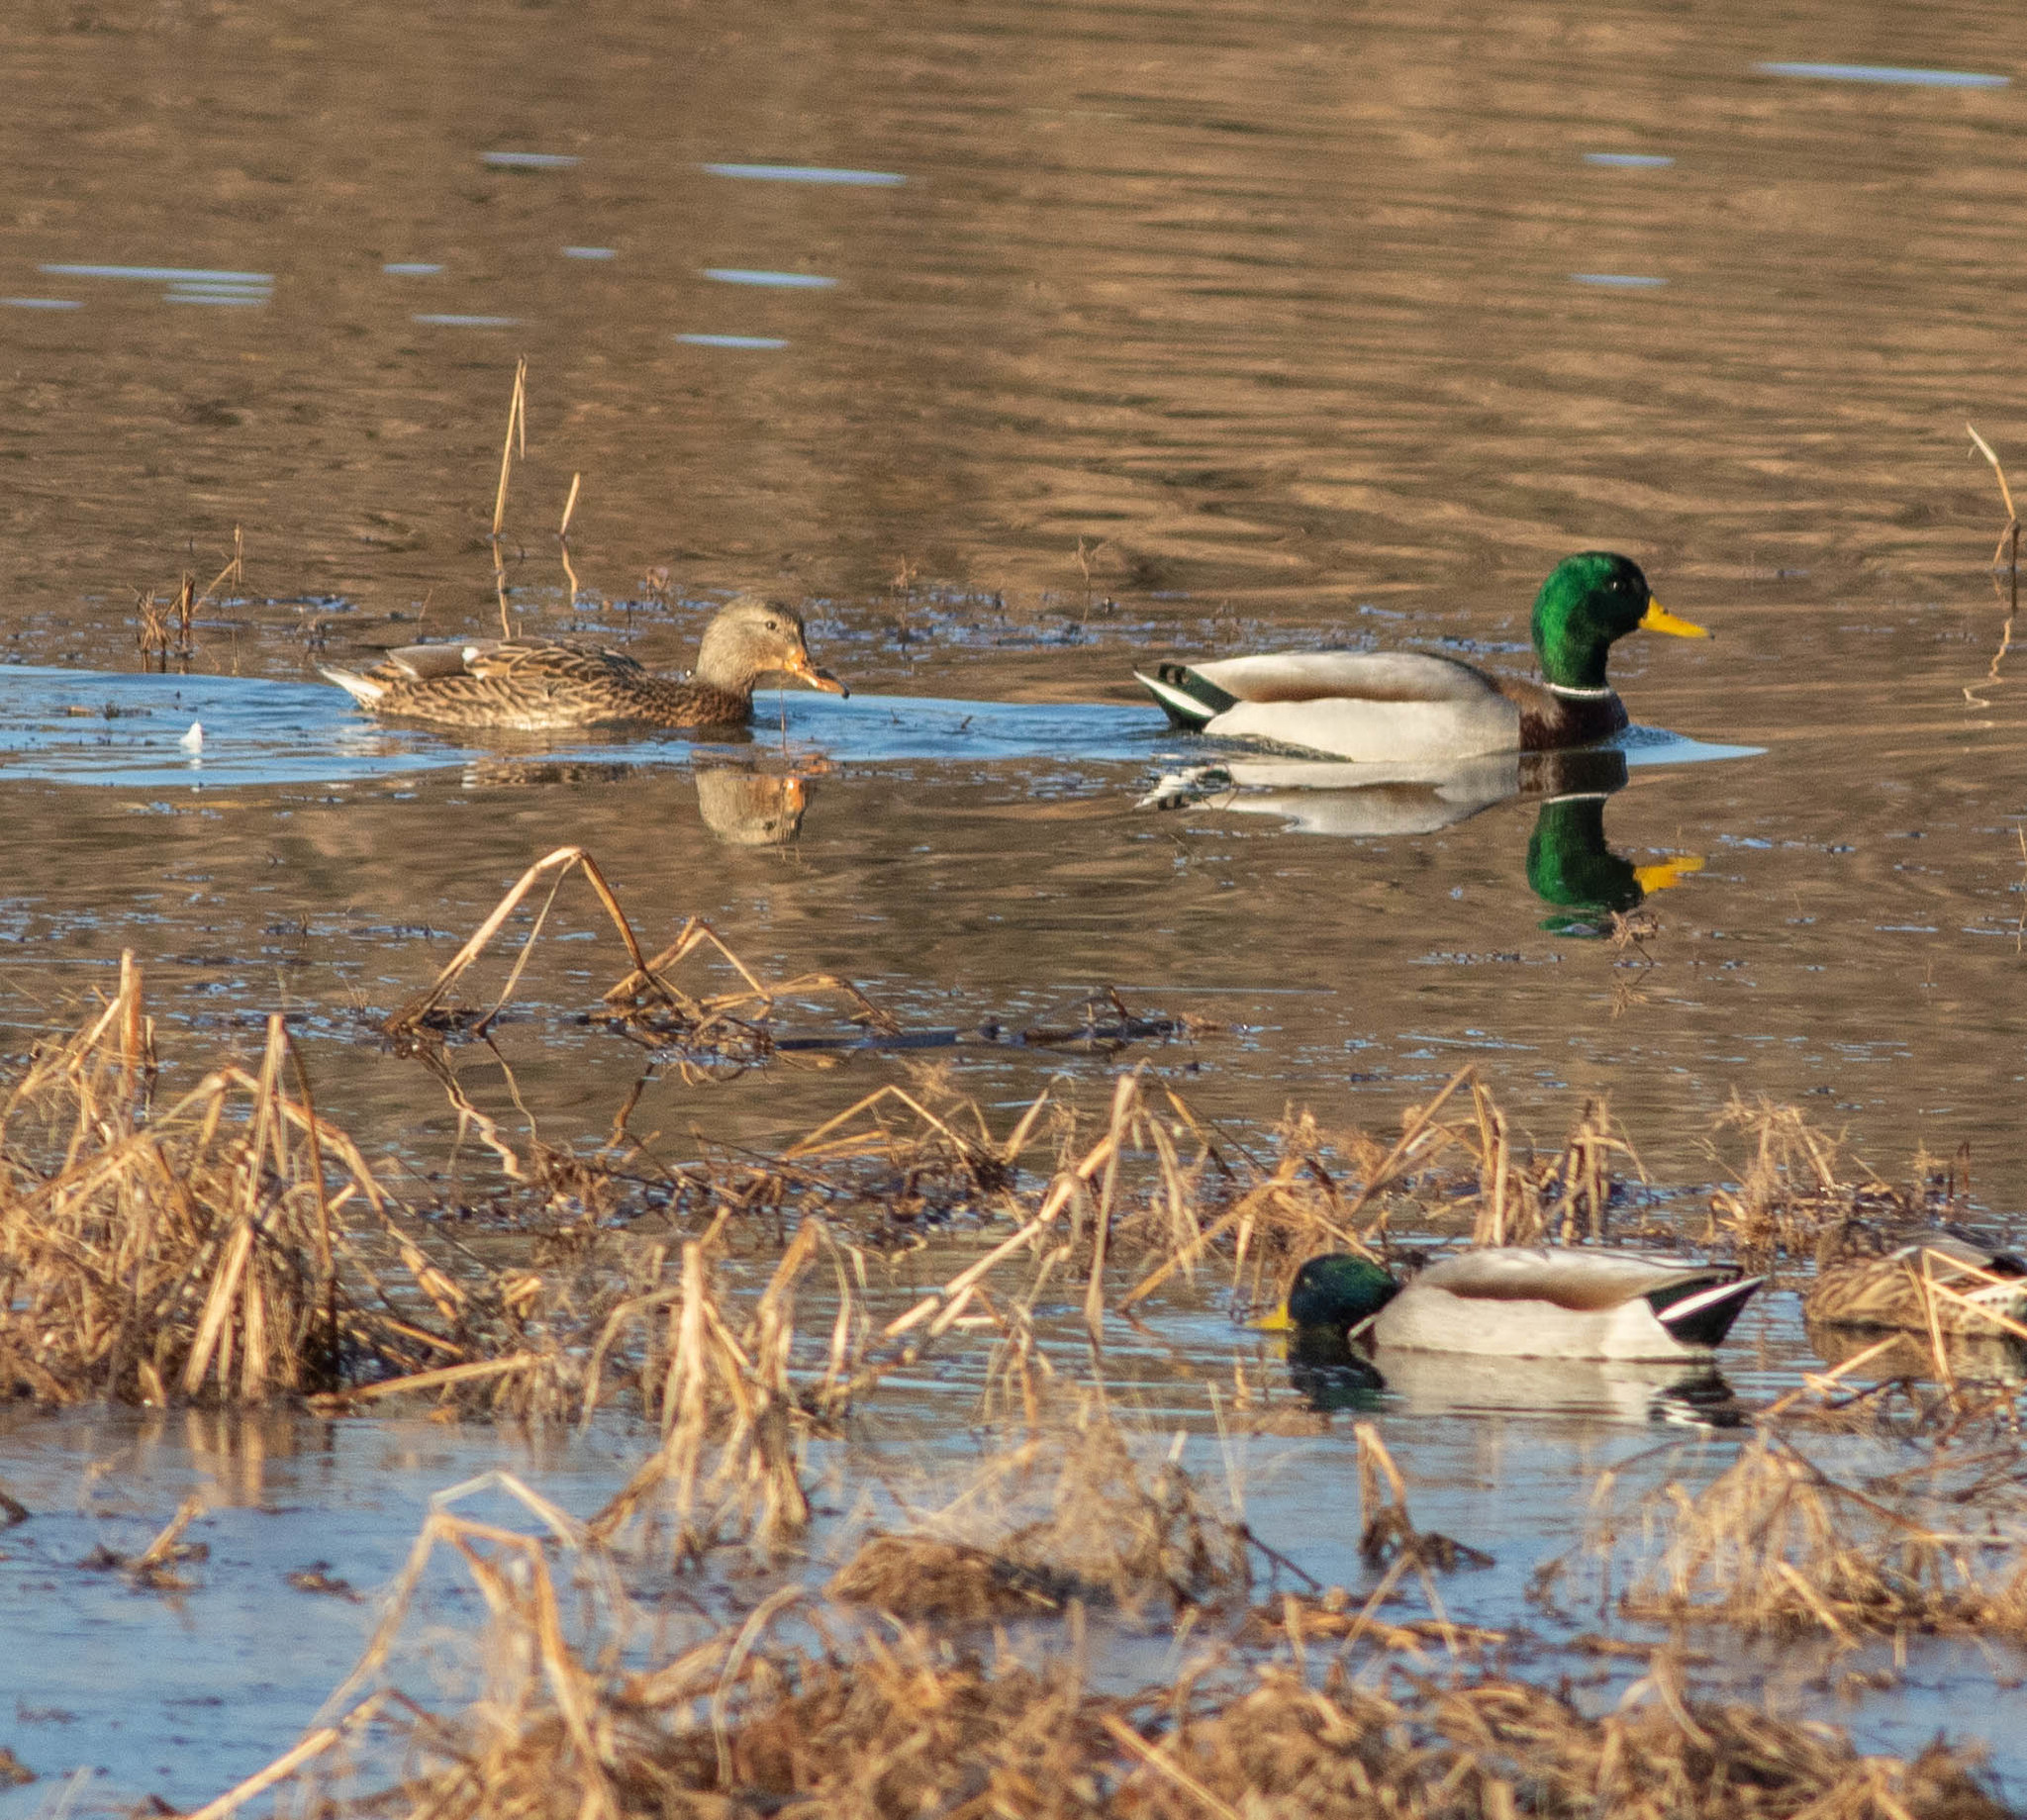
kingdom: Animalia
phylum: Chordata
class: Aves
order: Anseriformes
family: Anatidae
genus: Anas
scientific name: Anas platyrhynchos
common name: Mallard
